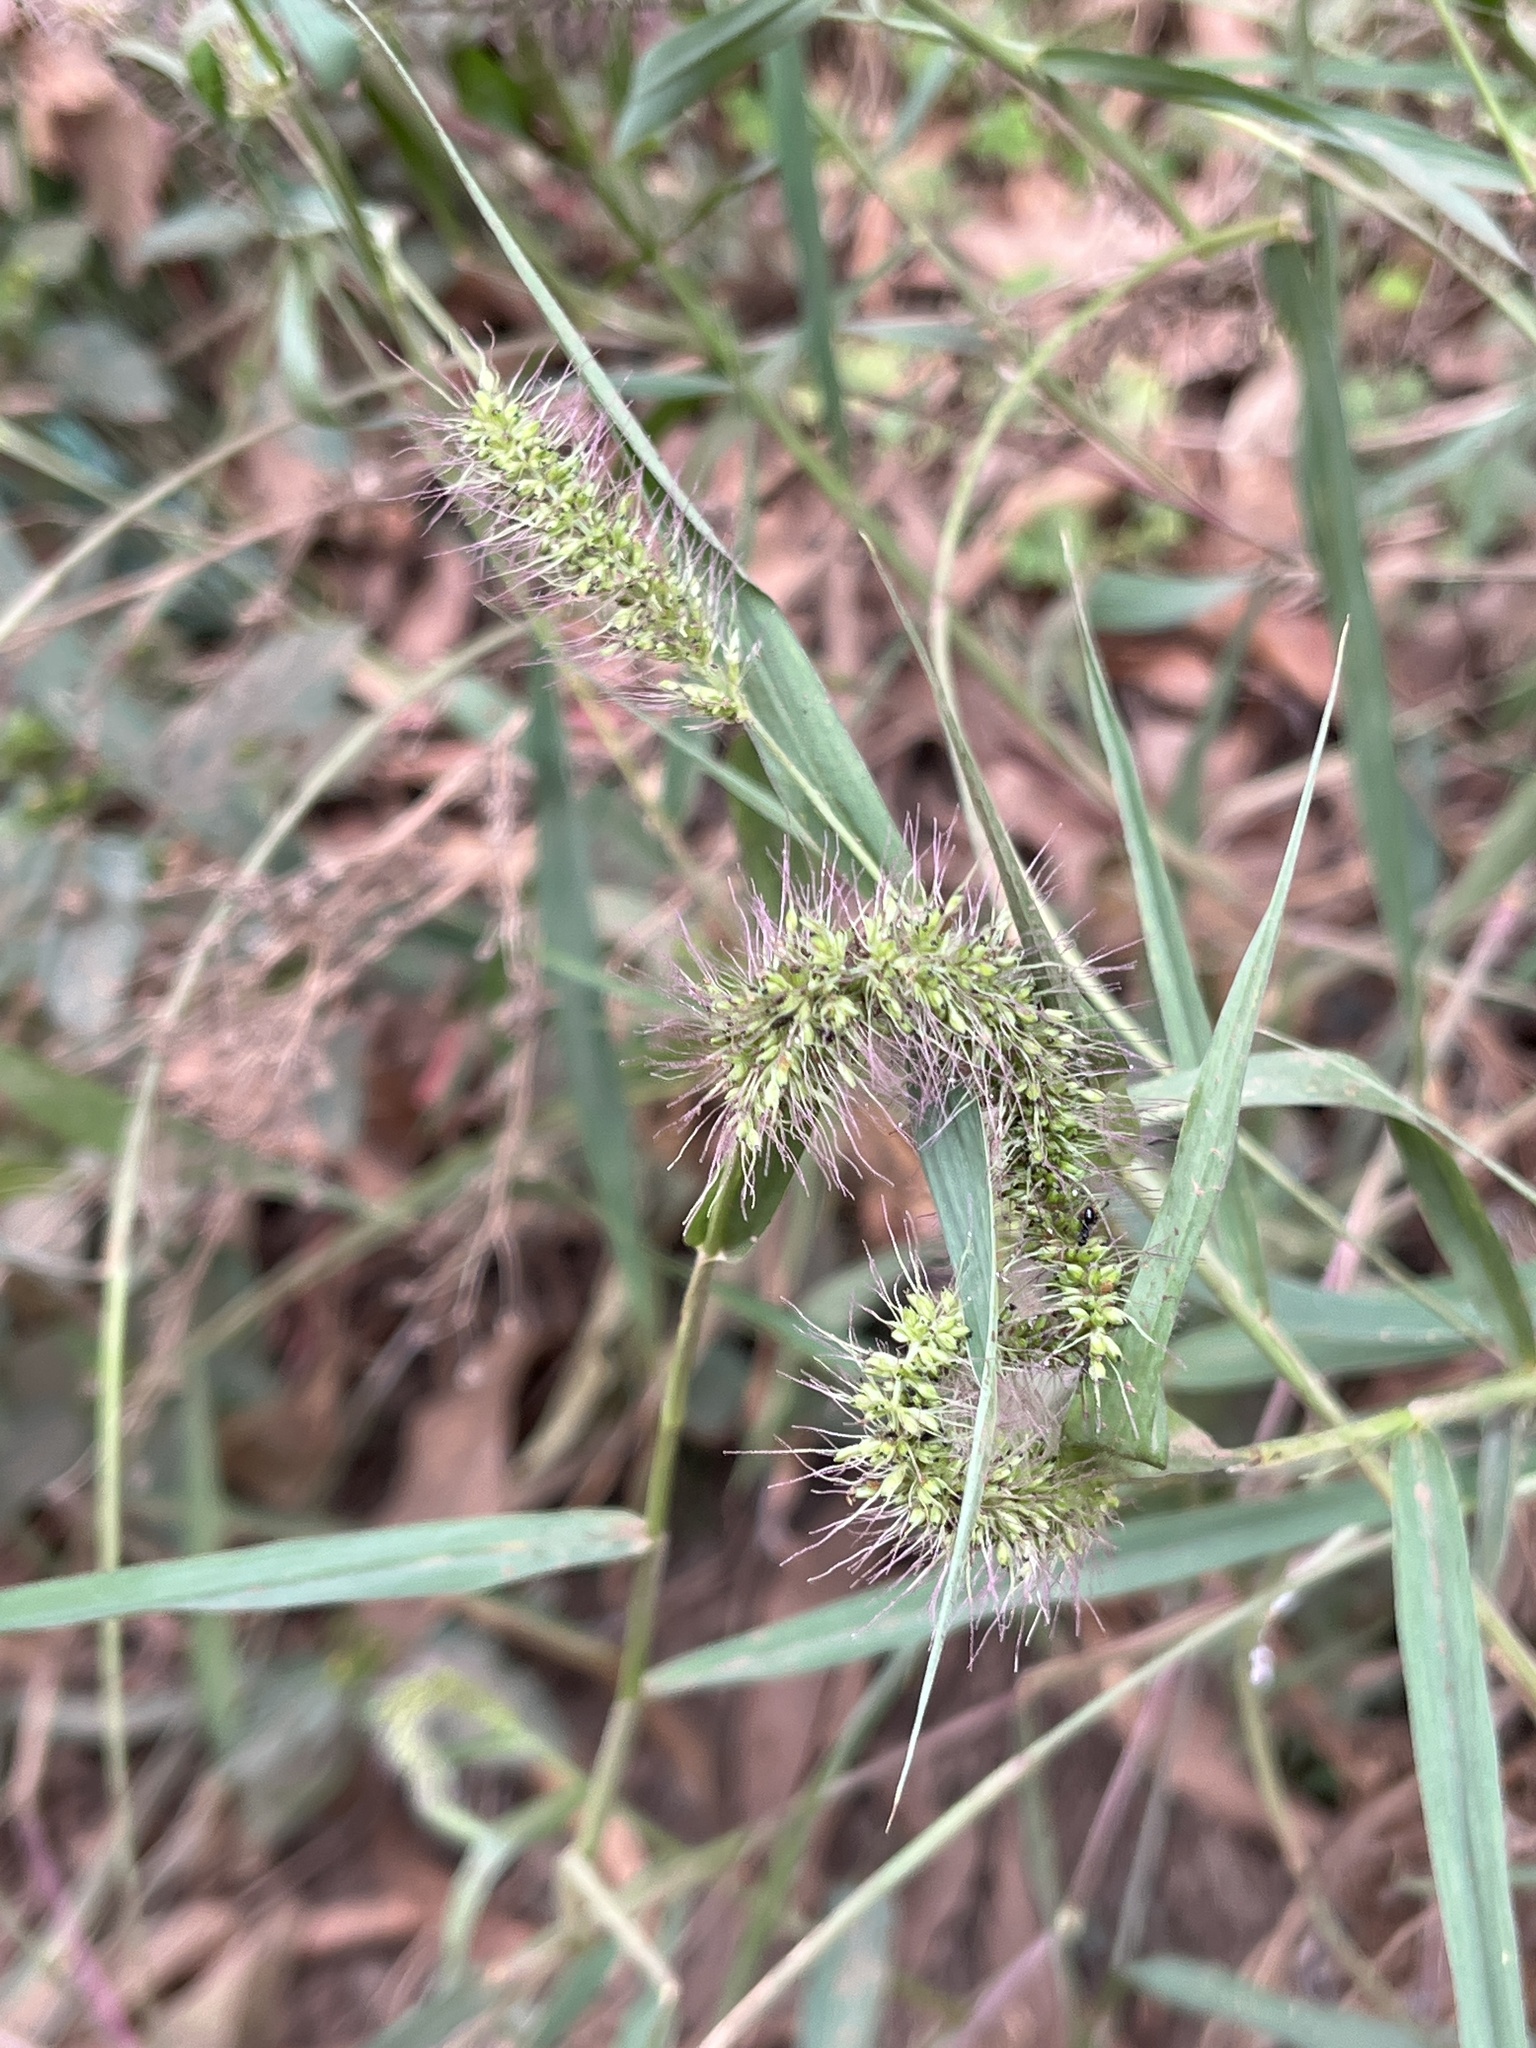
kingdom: Plantae
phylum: Tracheophyta
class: Liliopsida
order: Poales
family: Poaceae
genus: Setaria
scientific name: Setaria verticillata
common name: Hooked bristlegrass
